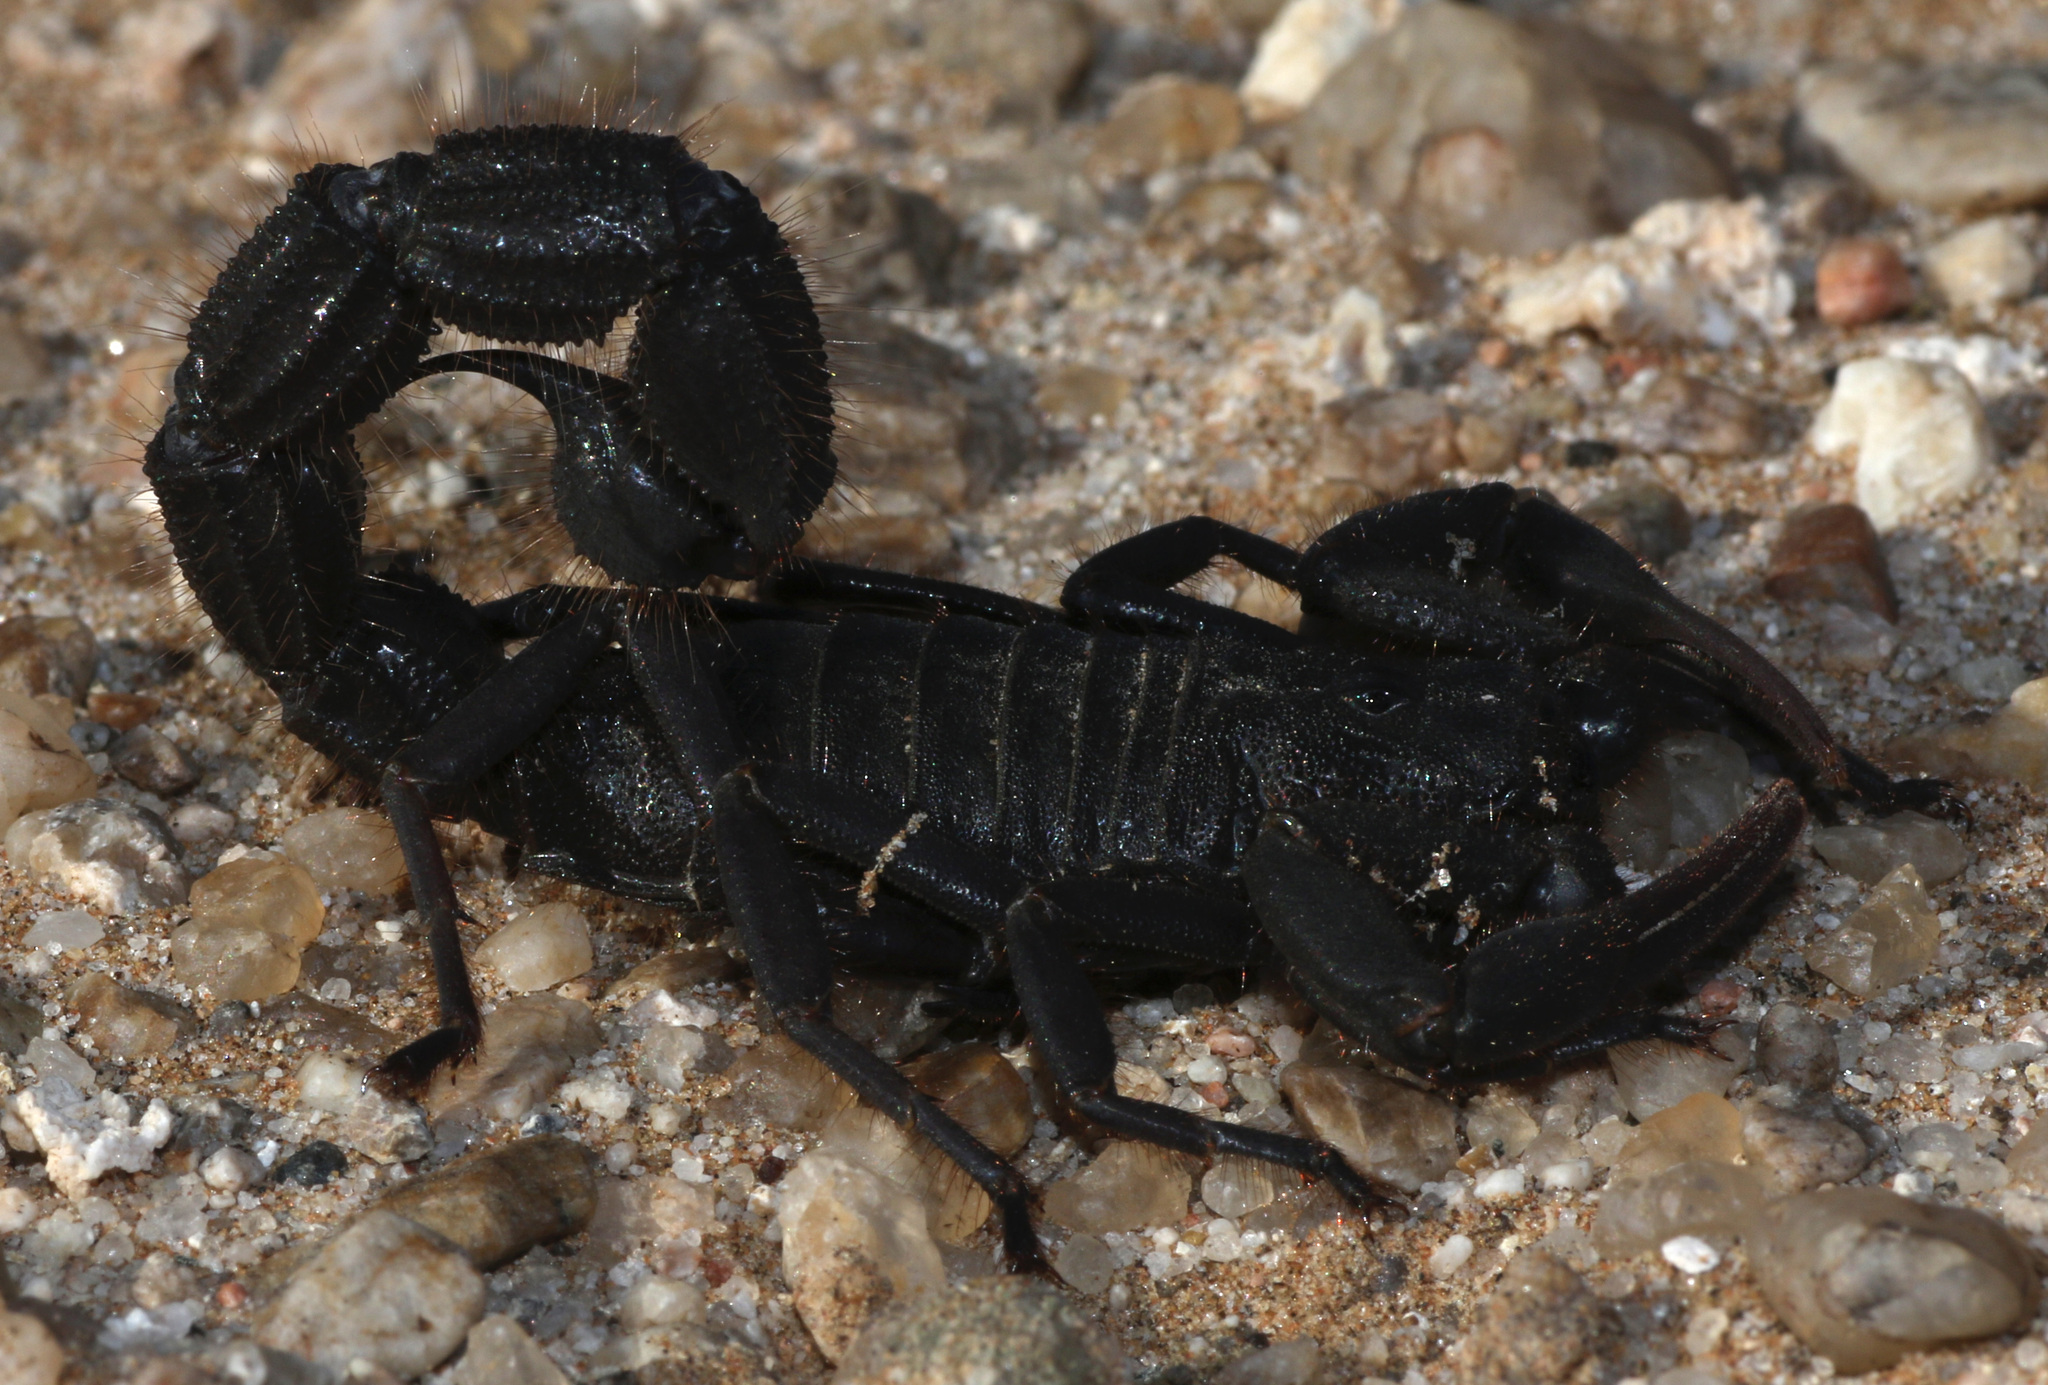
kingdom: Animalia
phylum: Arthropoda
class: Arachnida
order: Scorpiones
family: Buthidae
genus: Parabuthus
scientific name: Parabuthus villosus
